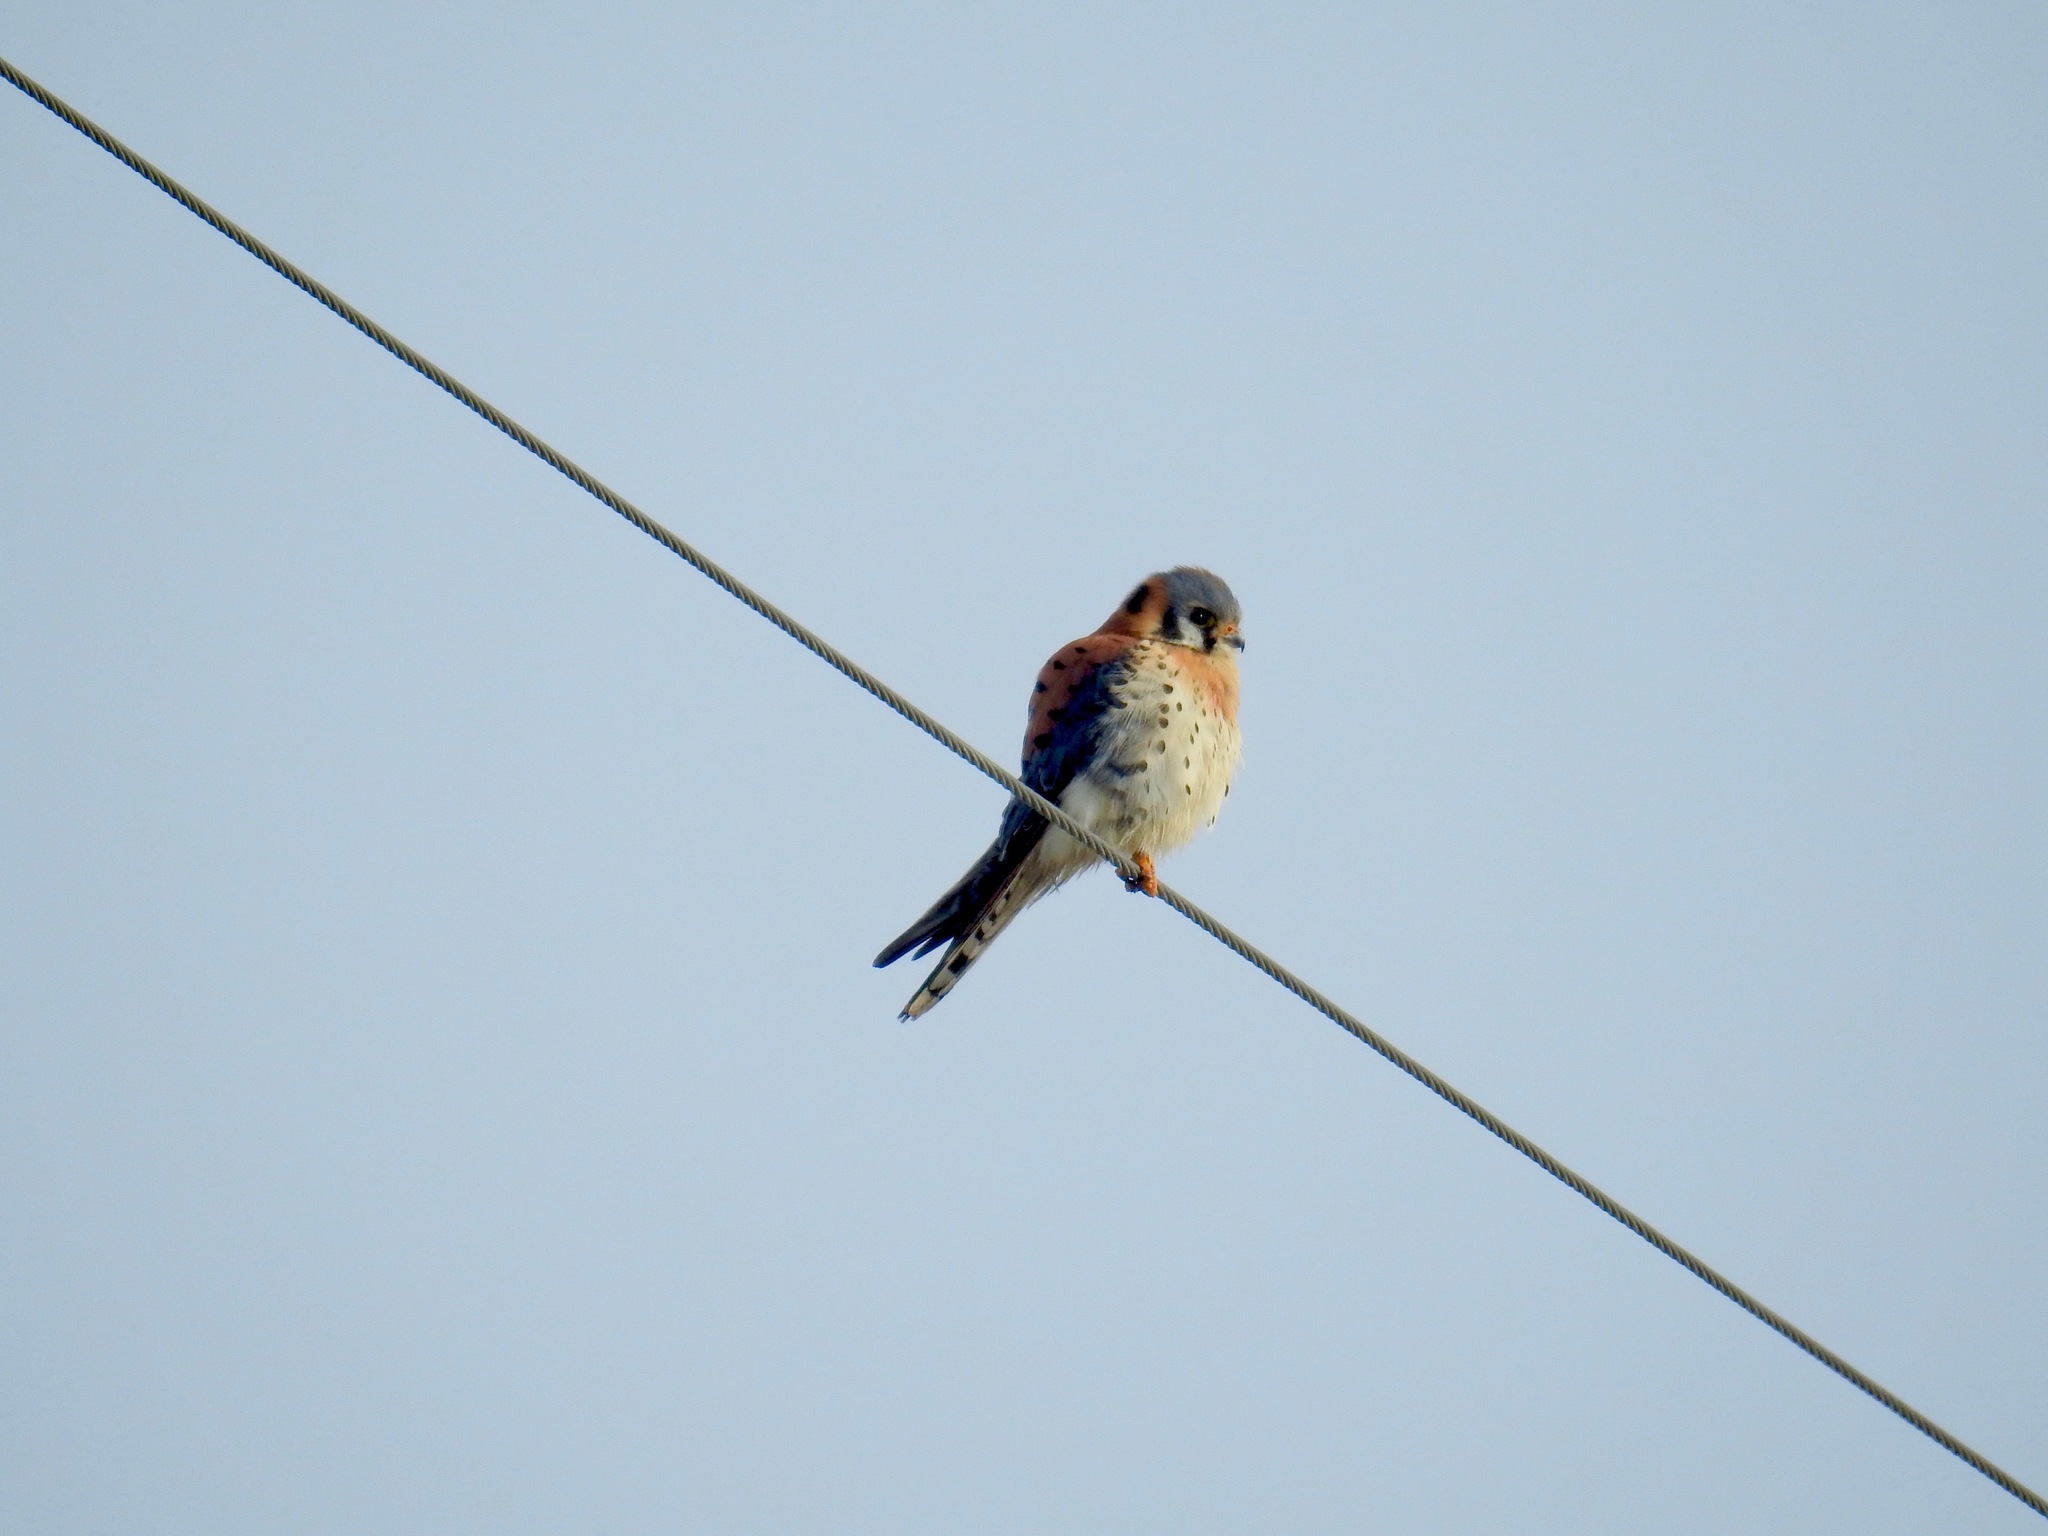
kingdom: Animalia
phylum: Chordata
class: Aves
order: Falconiformes
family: Falconidae
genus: Falco
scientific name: Falco sparverius
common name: American kestrel
